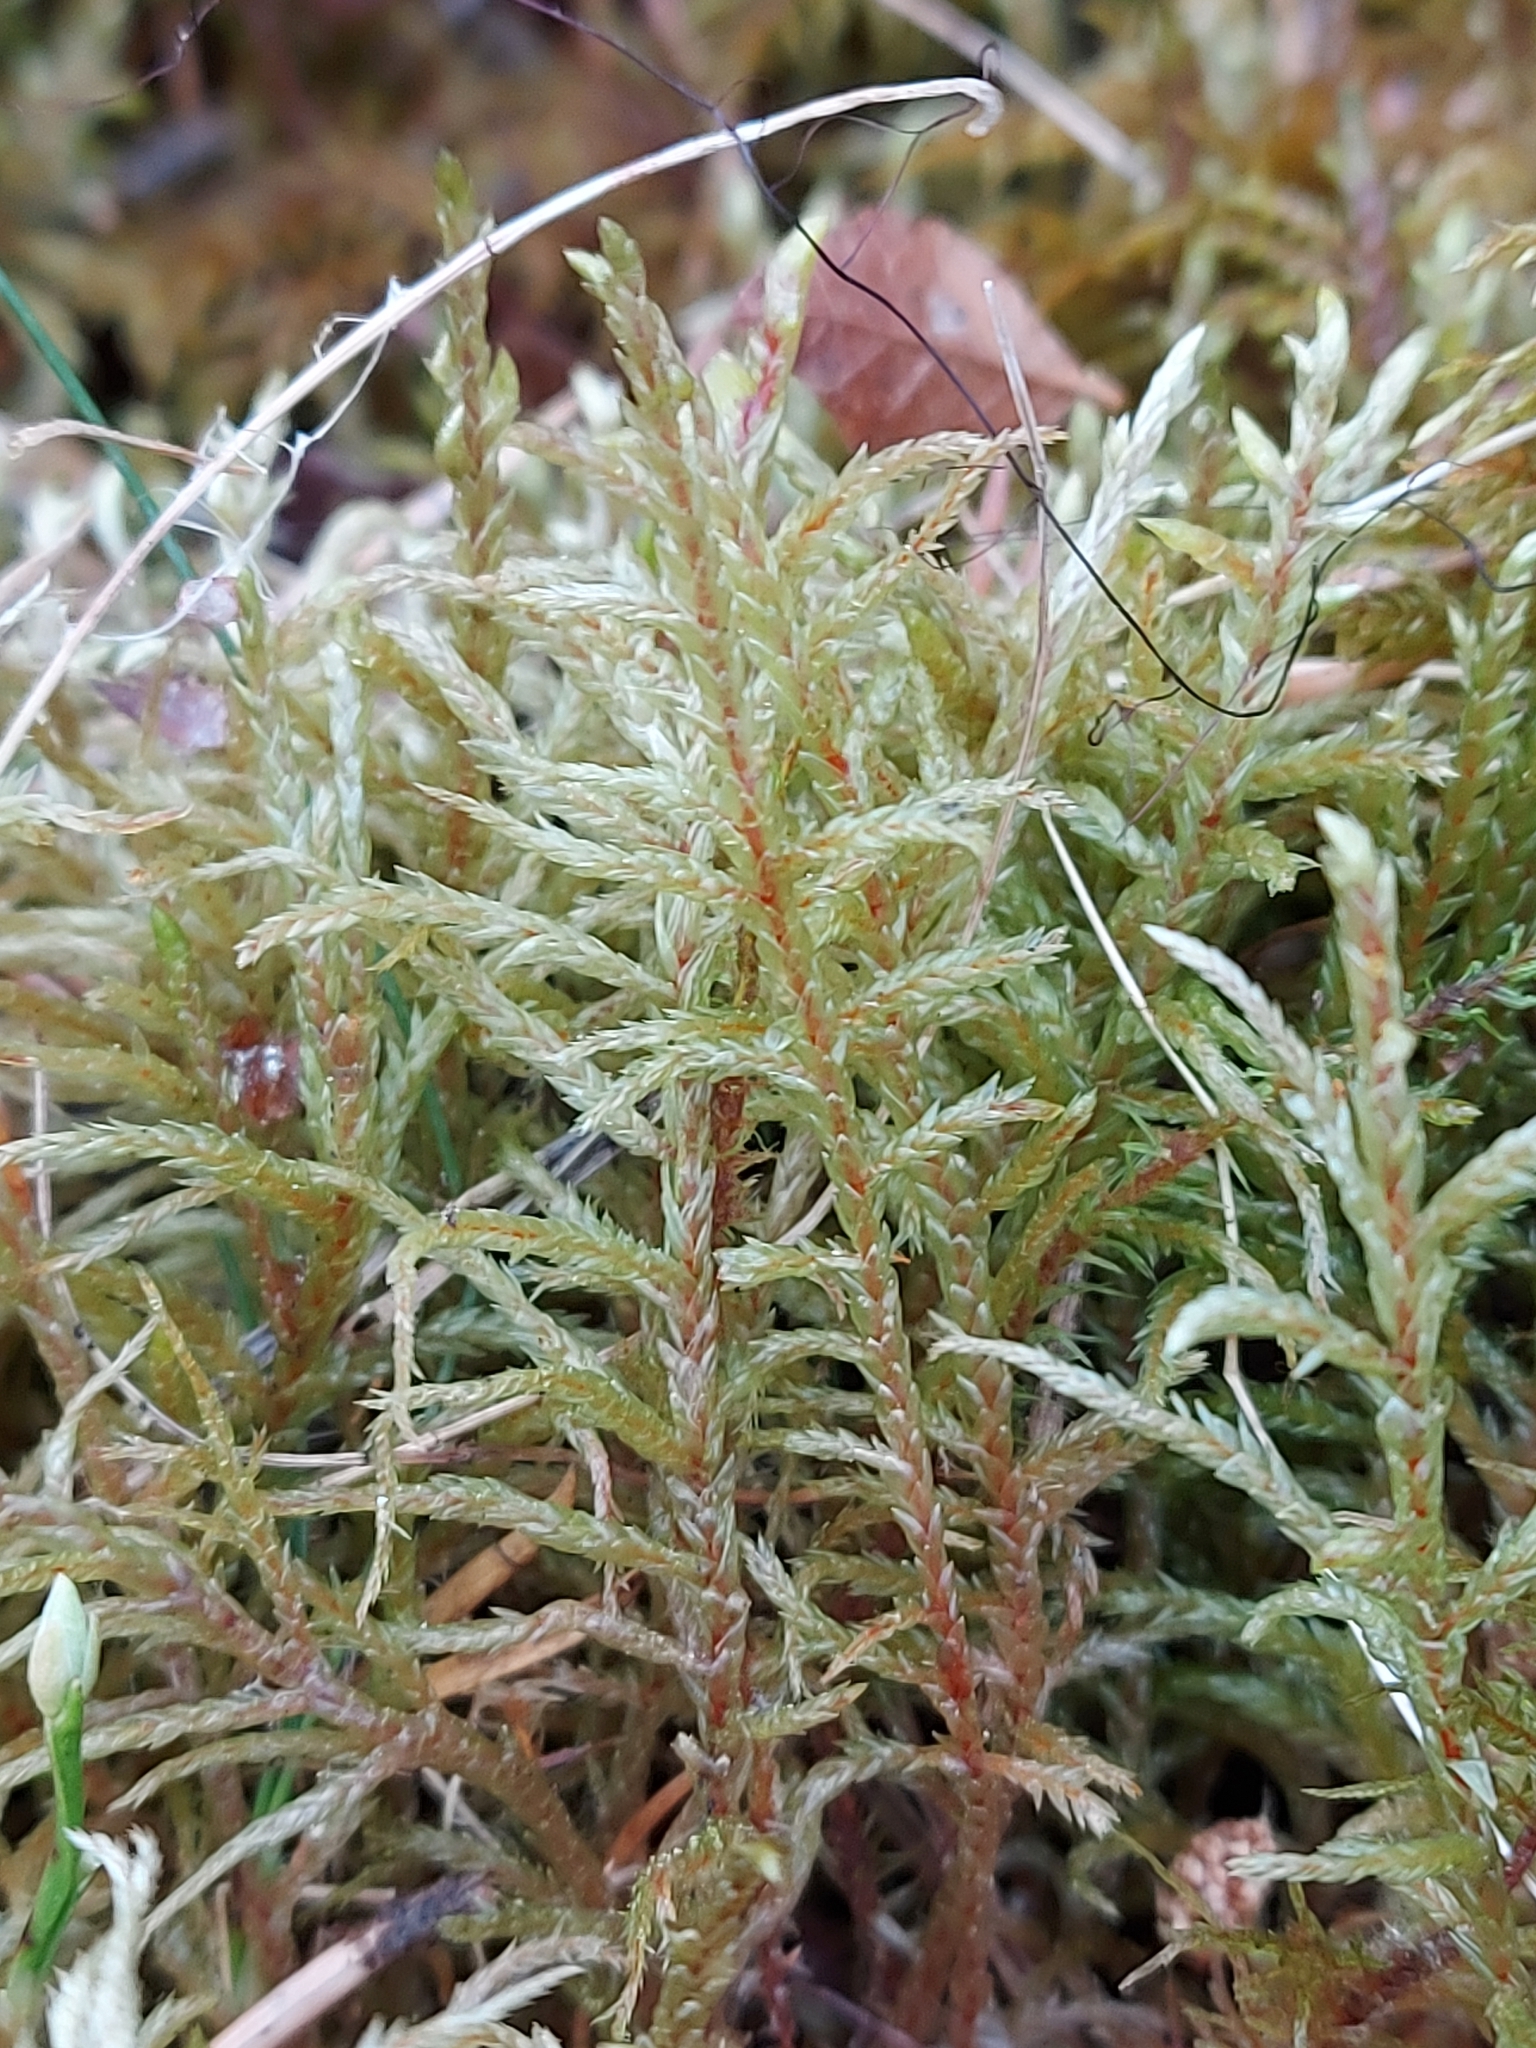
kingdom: Plantae
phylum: Bryophyta
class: Bryopsida
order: Hypnales
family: Hylocomiaceae
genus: Pleurozium
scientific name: Pleurozium schreberi
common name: Red-stemmed feather moss
